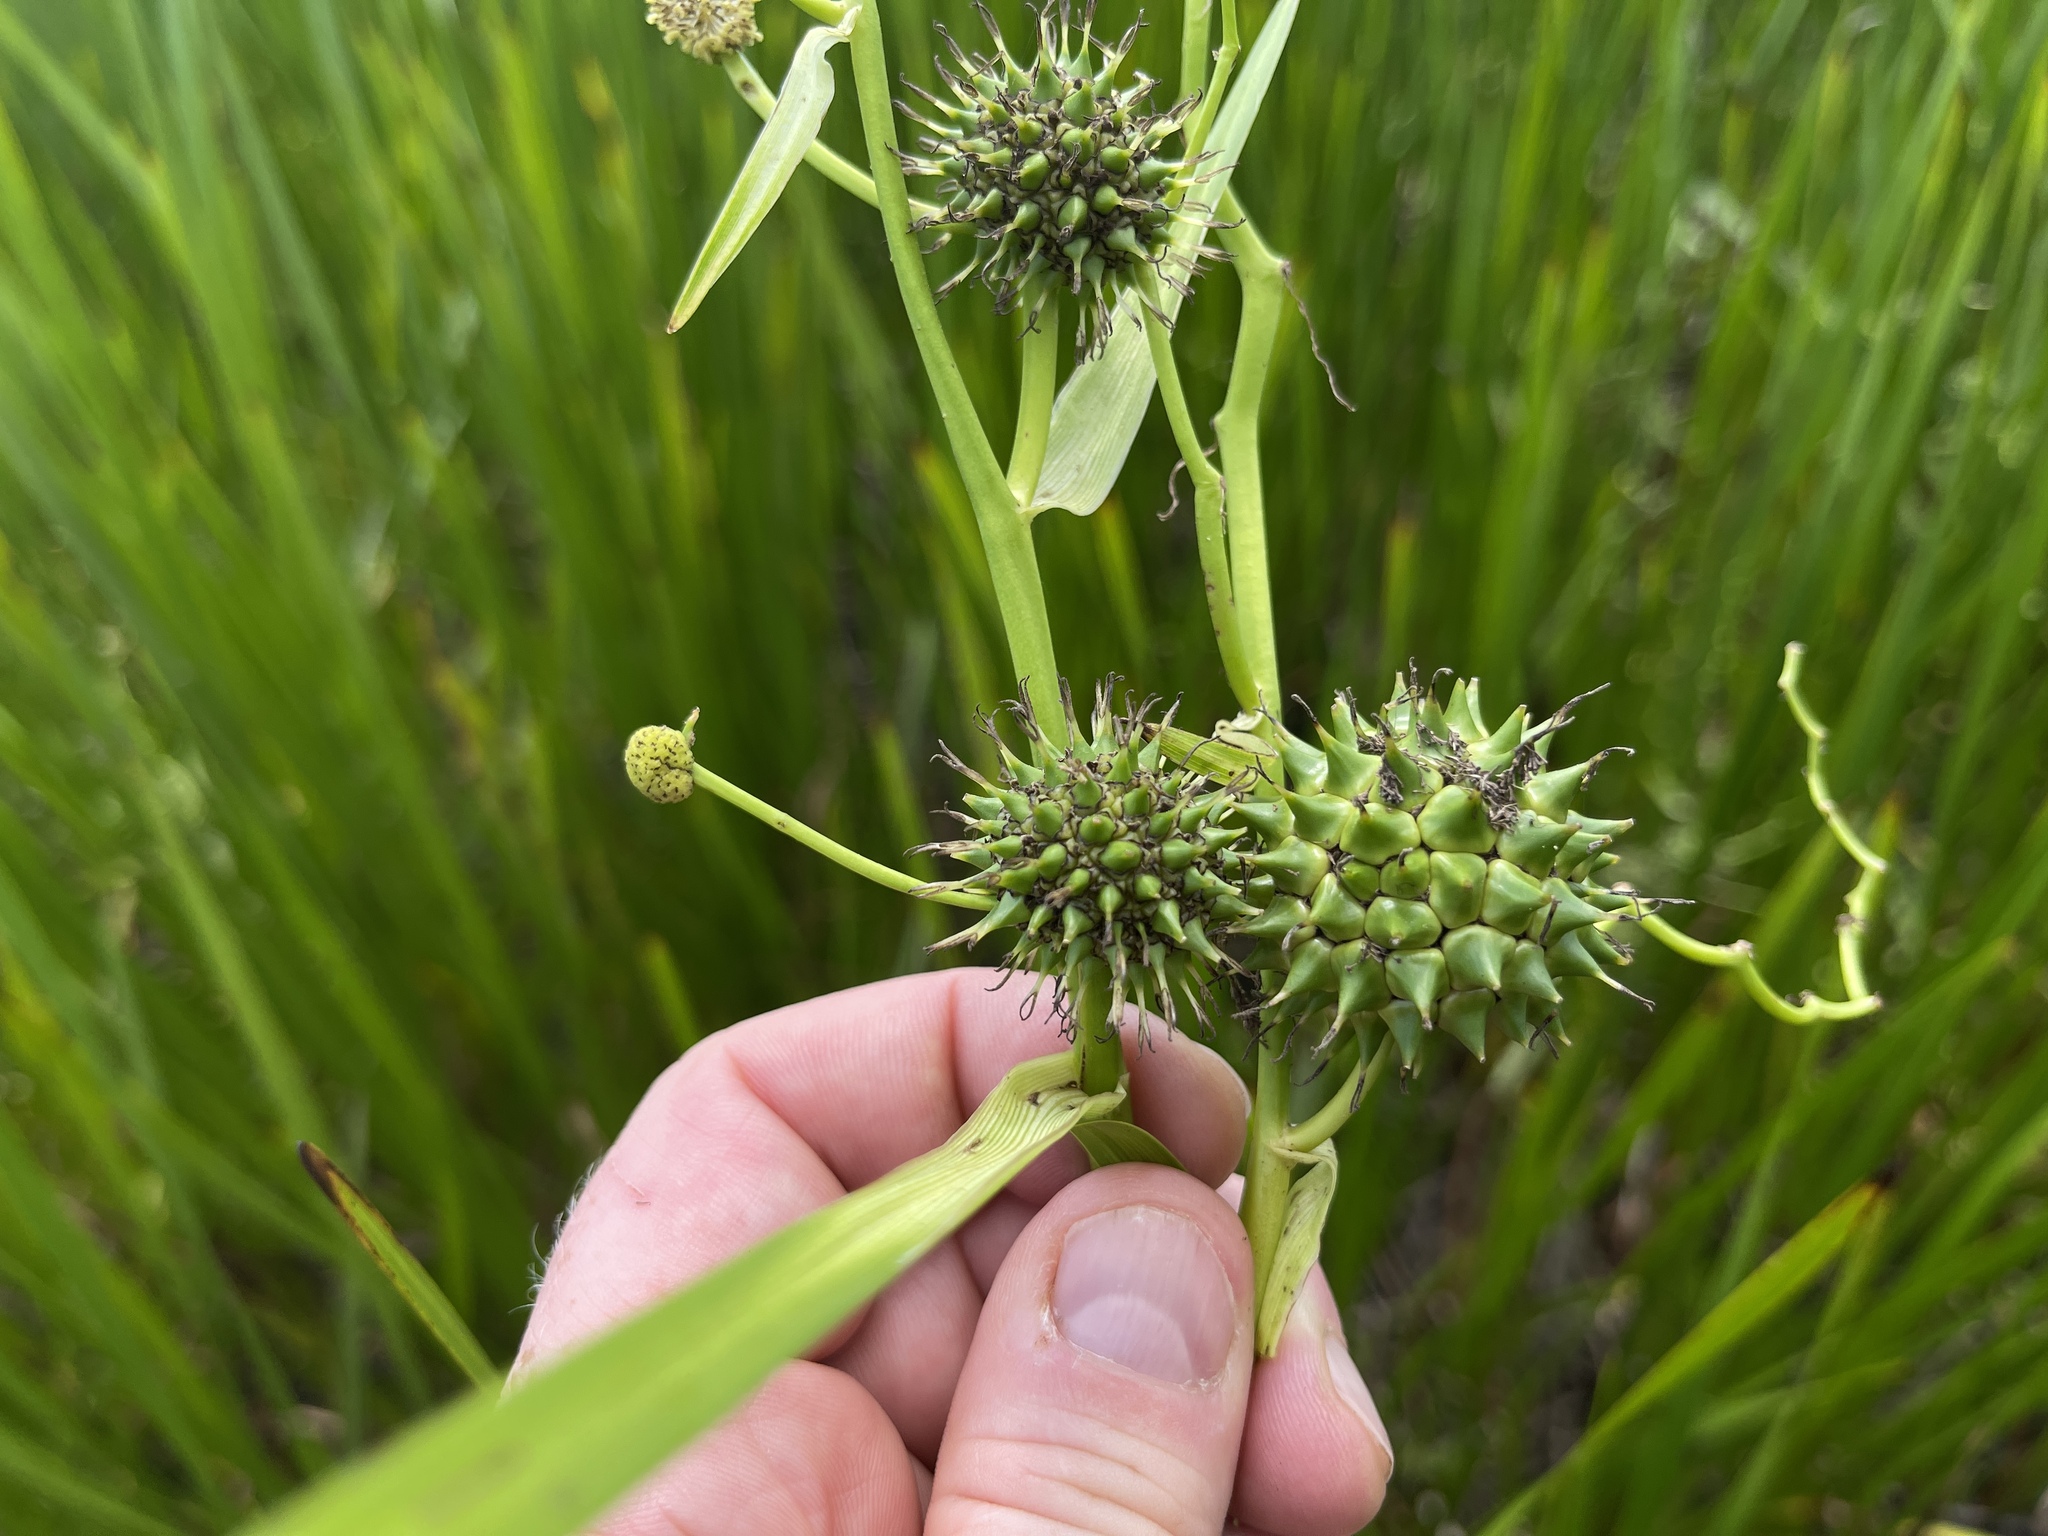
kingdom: Plantae
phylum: Tracheophyta
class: Liliopsida
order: Poales
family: Typhaceae
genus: Sparganium
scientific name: Sparganium eurycarpum
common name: Broad-fruited burreed
